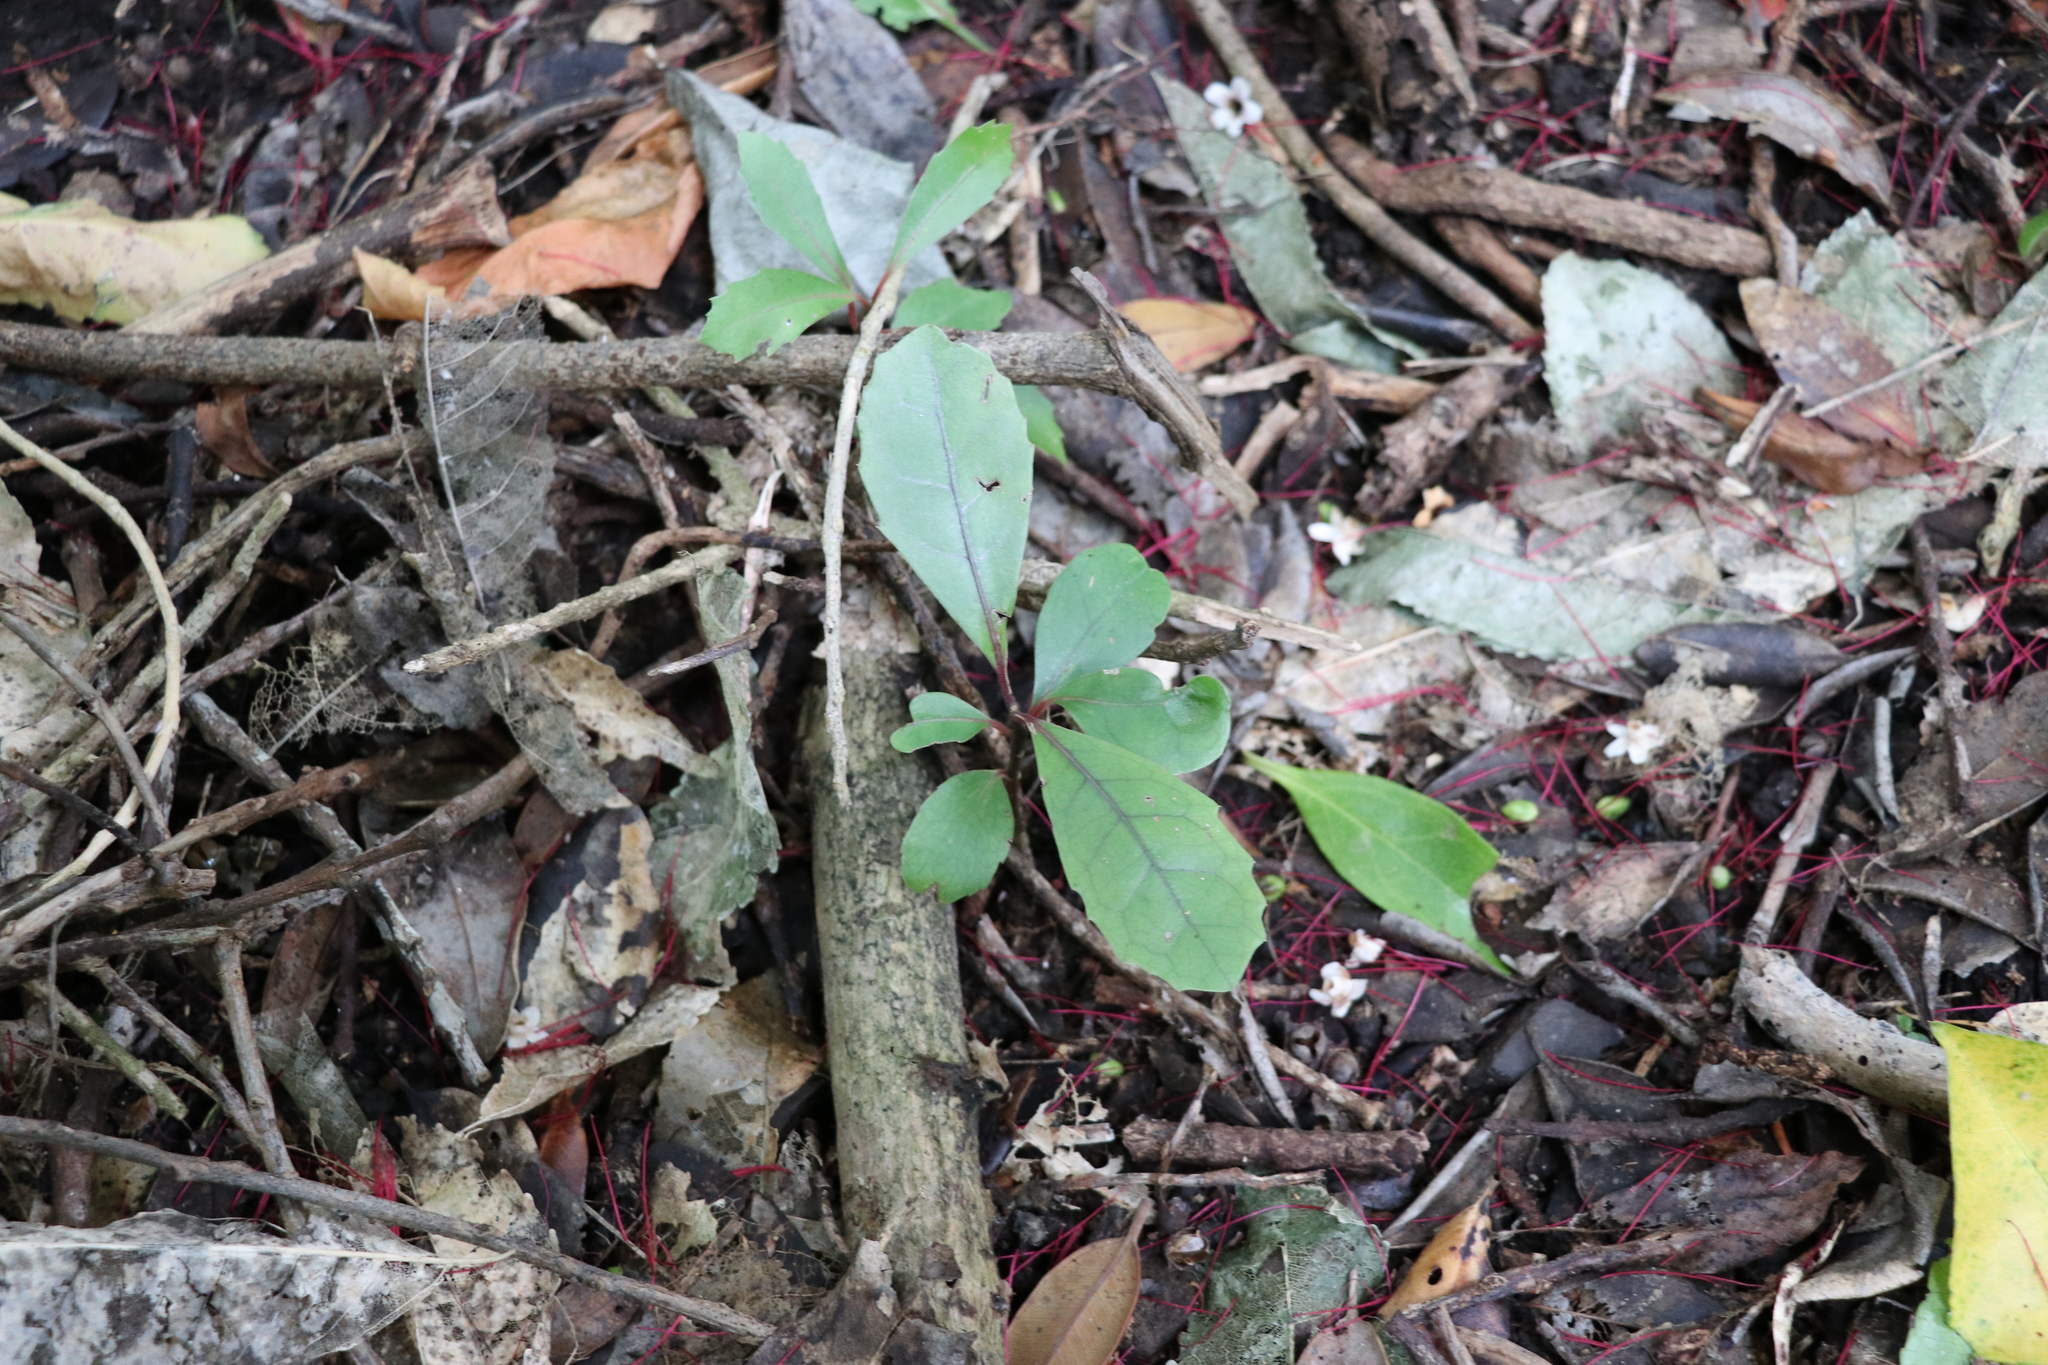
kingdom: Plantae
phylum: Tracheophyta
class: Magnoliopsida
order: Laurales
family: Monimiaceae
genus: Hedycarya
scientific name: Hedycarya arborea
